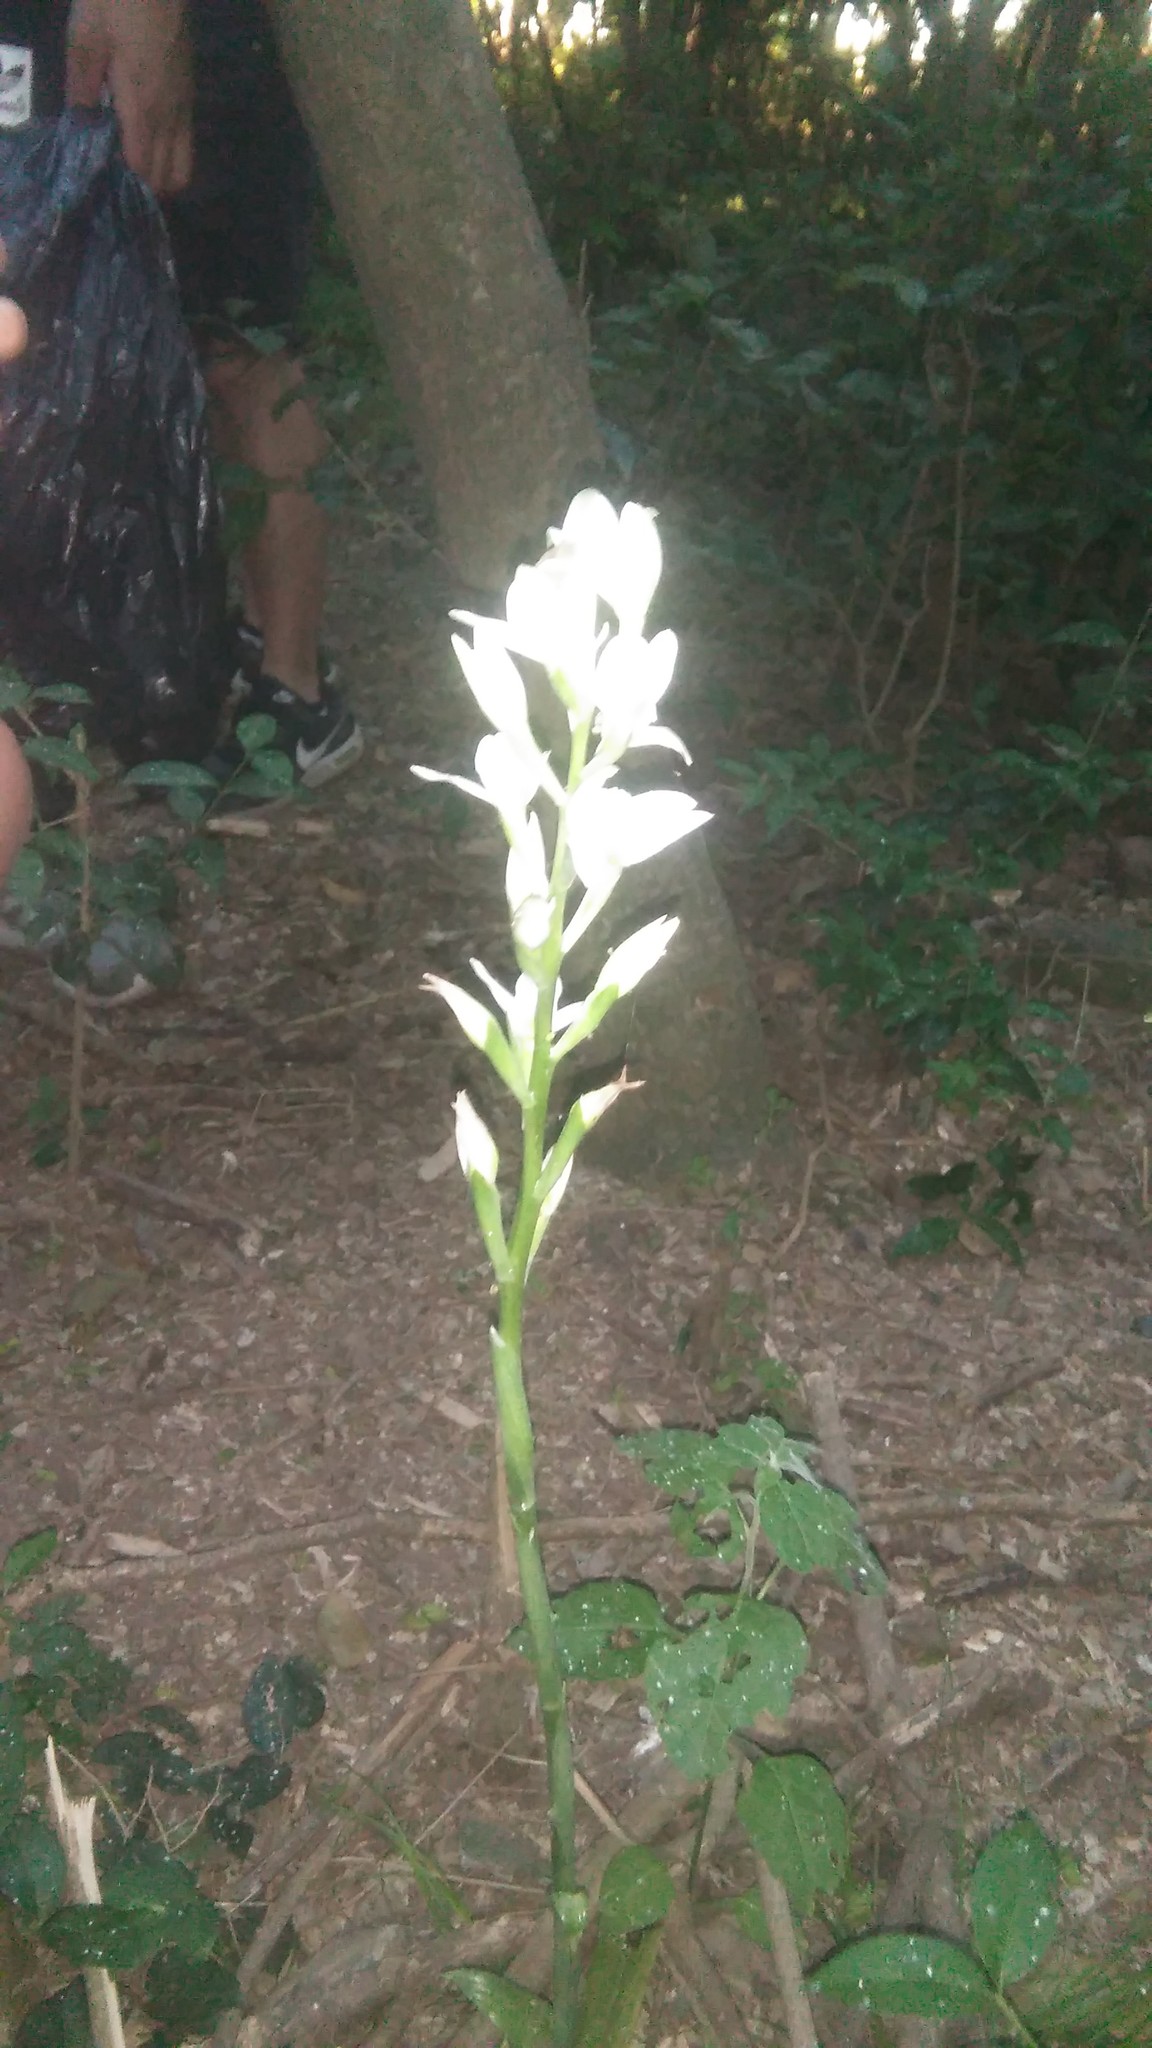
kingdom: Plantae
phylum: Tracheophyta
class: Liliopsida
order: Asparagales
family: Orchidaceae
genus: Chloraea
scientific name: Chloraea membranacea
